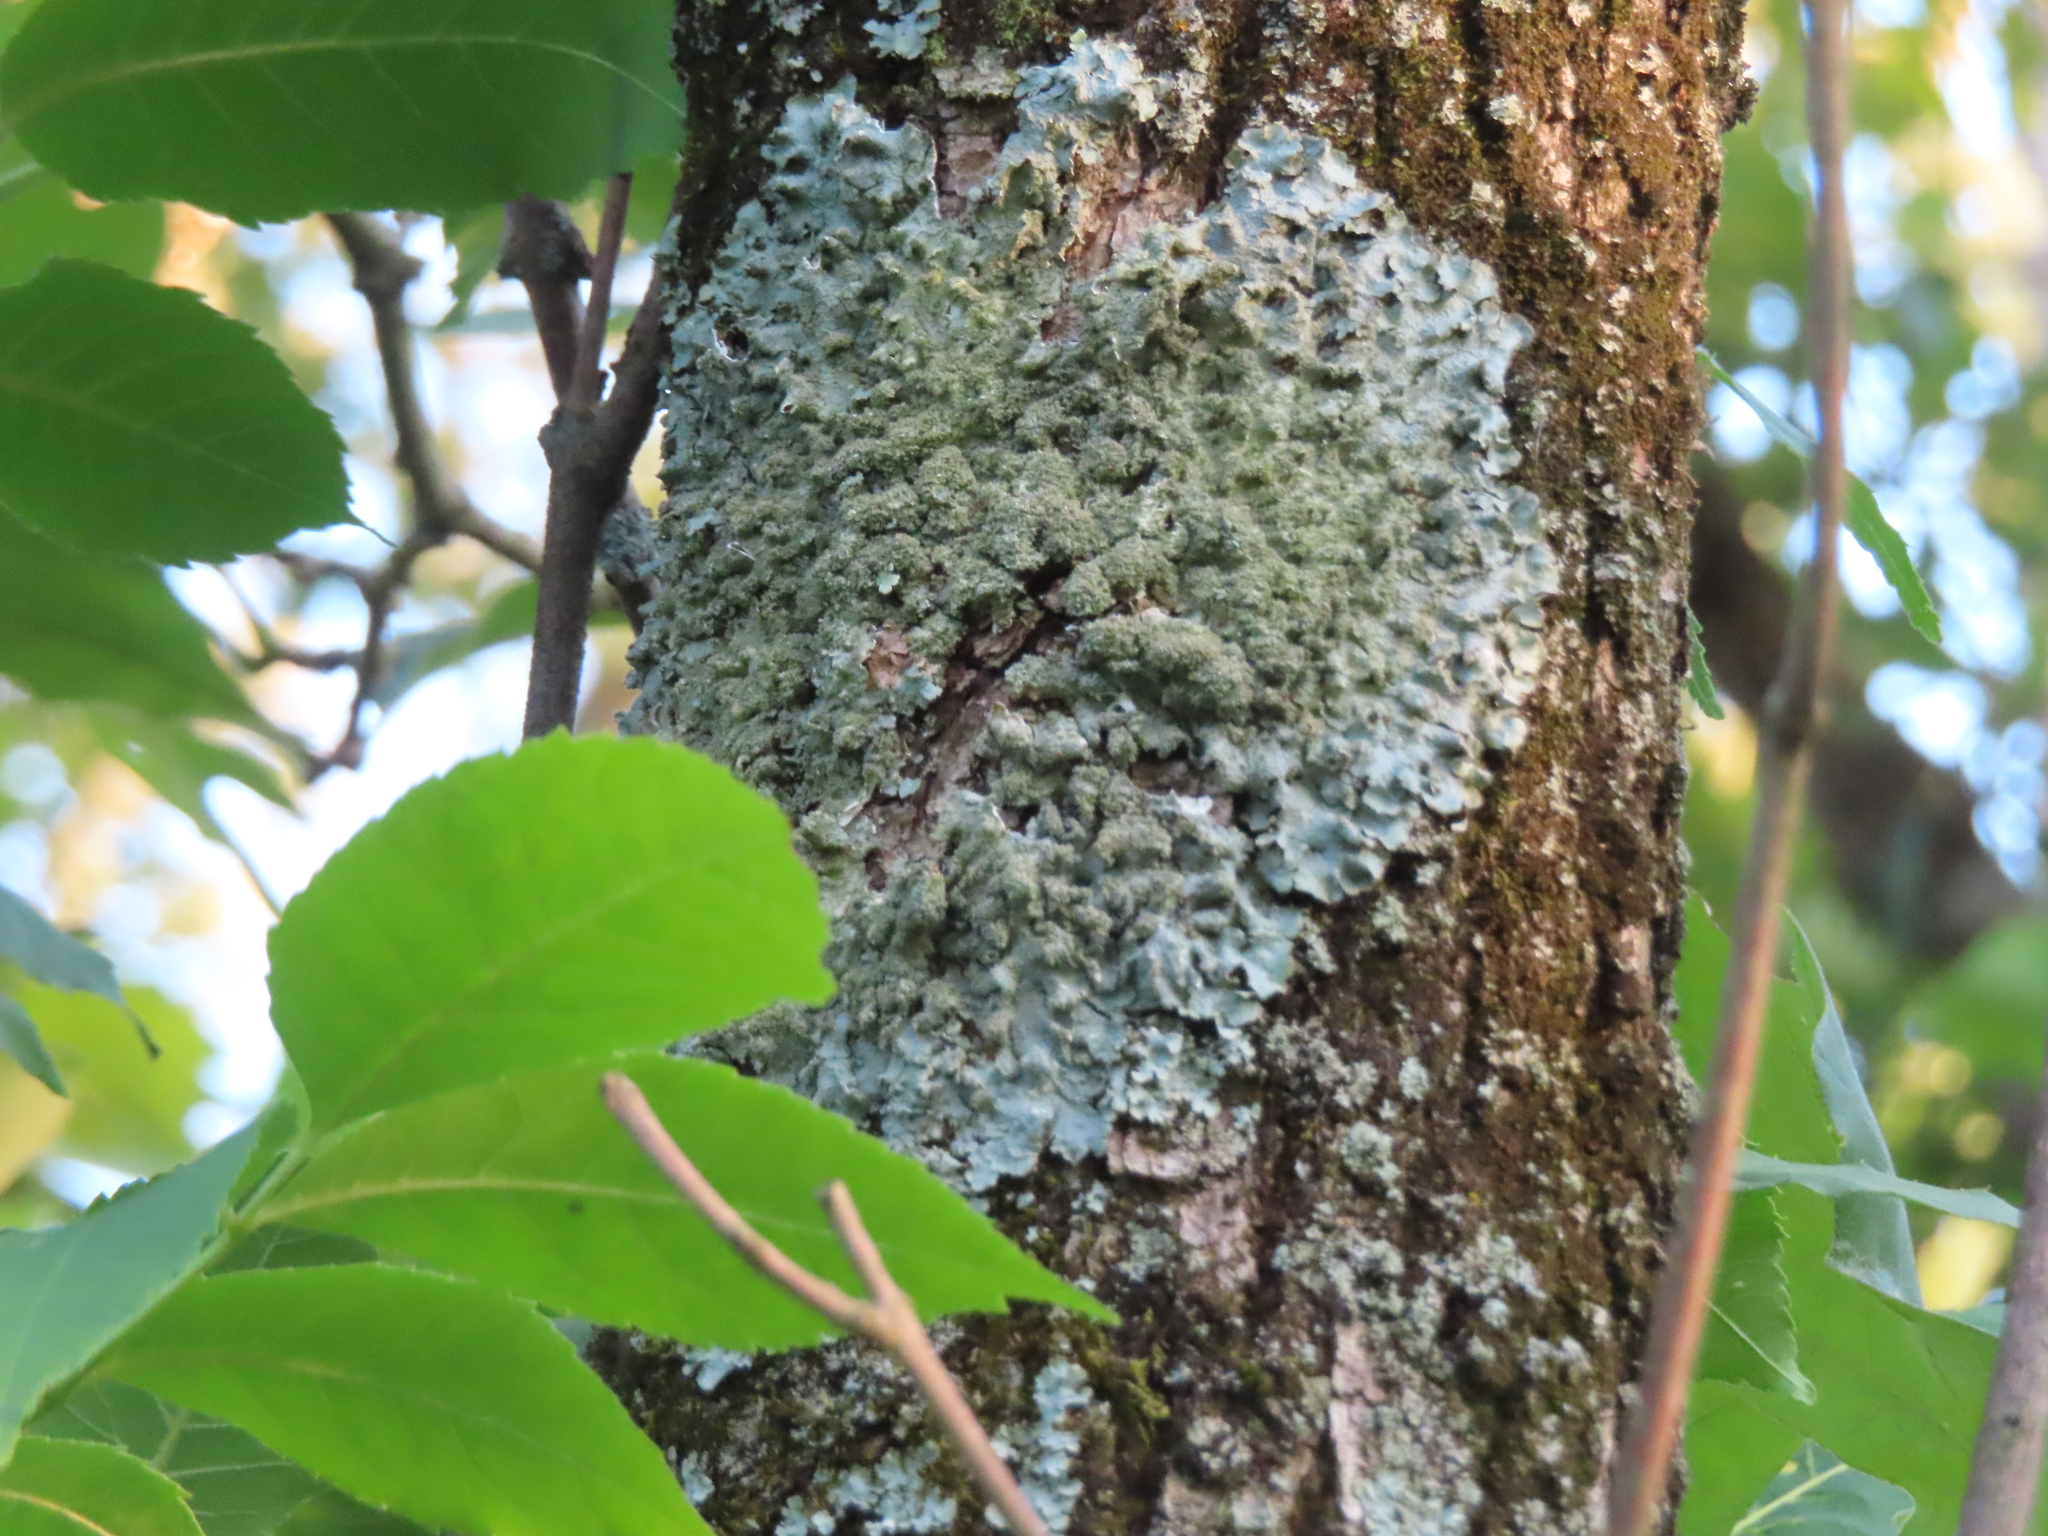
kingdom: Fungi
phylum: Ascomycota
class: Lecanoromycetes
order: Lecanorales
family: Parmeliaceae
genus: Punctelia
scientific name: Punctelia rudecta
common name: Rough speckled shield lichen
